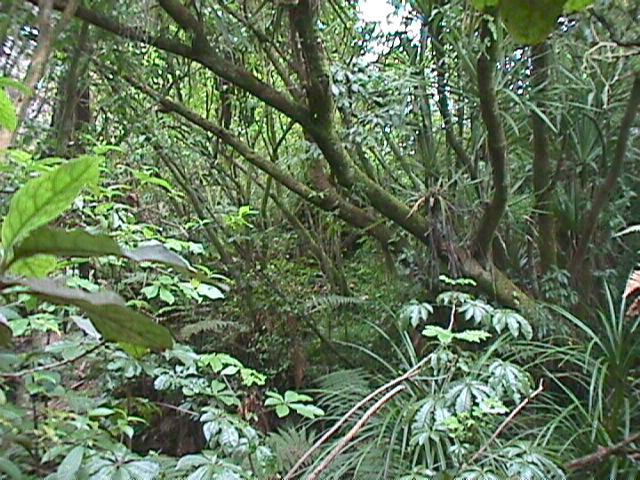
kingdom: Plantae
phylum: Tracheophyta
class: Magnoliopsida
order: Apiales
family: Araliaceae
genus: Schefflera
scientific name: Schefflera digitata
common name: Pate
